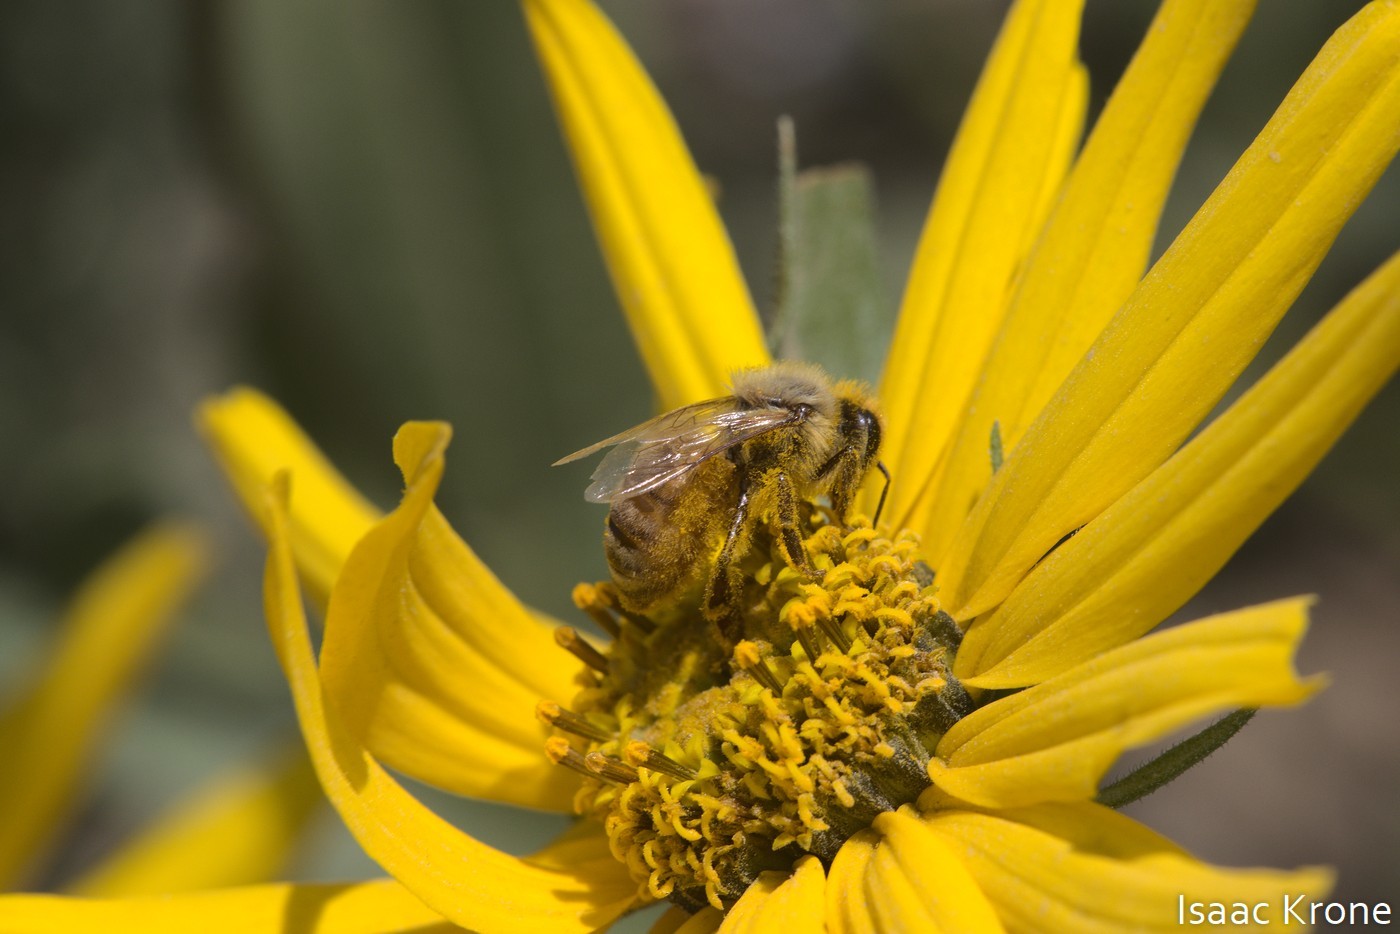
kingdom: Animalia
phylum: Arthropoda
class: Insecta
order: Hymenoptera
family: Apidae
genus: Apis
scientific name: Apis mellifera
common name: Honey bee
